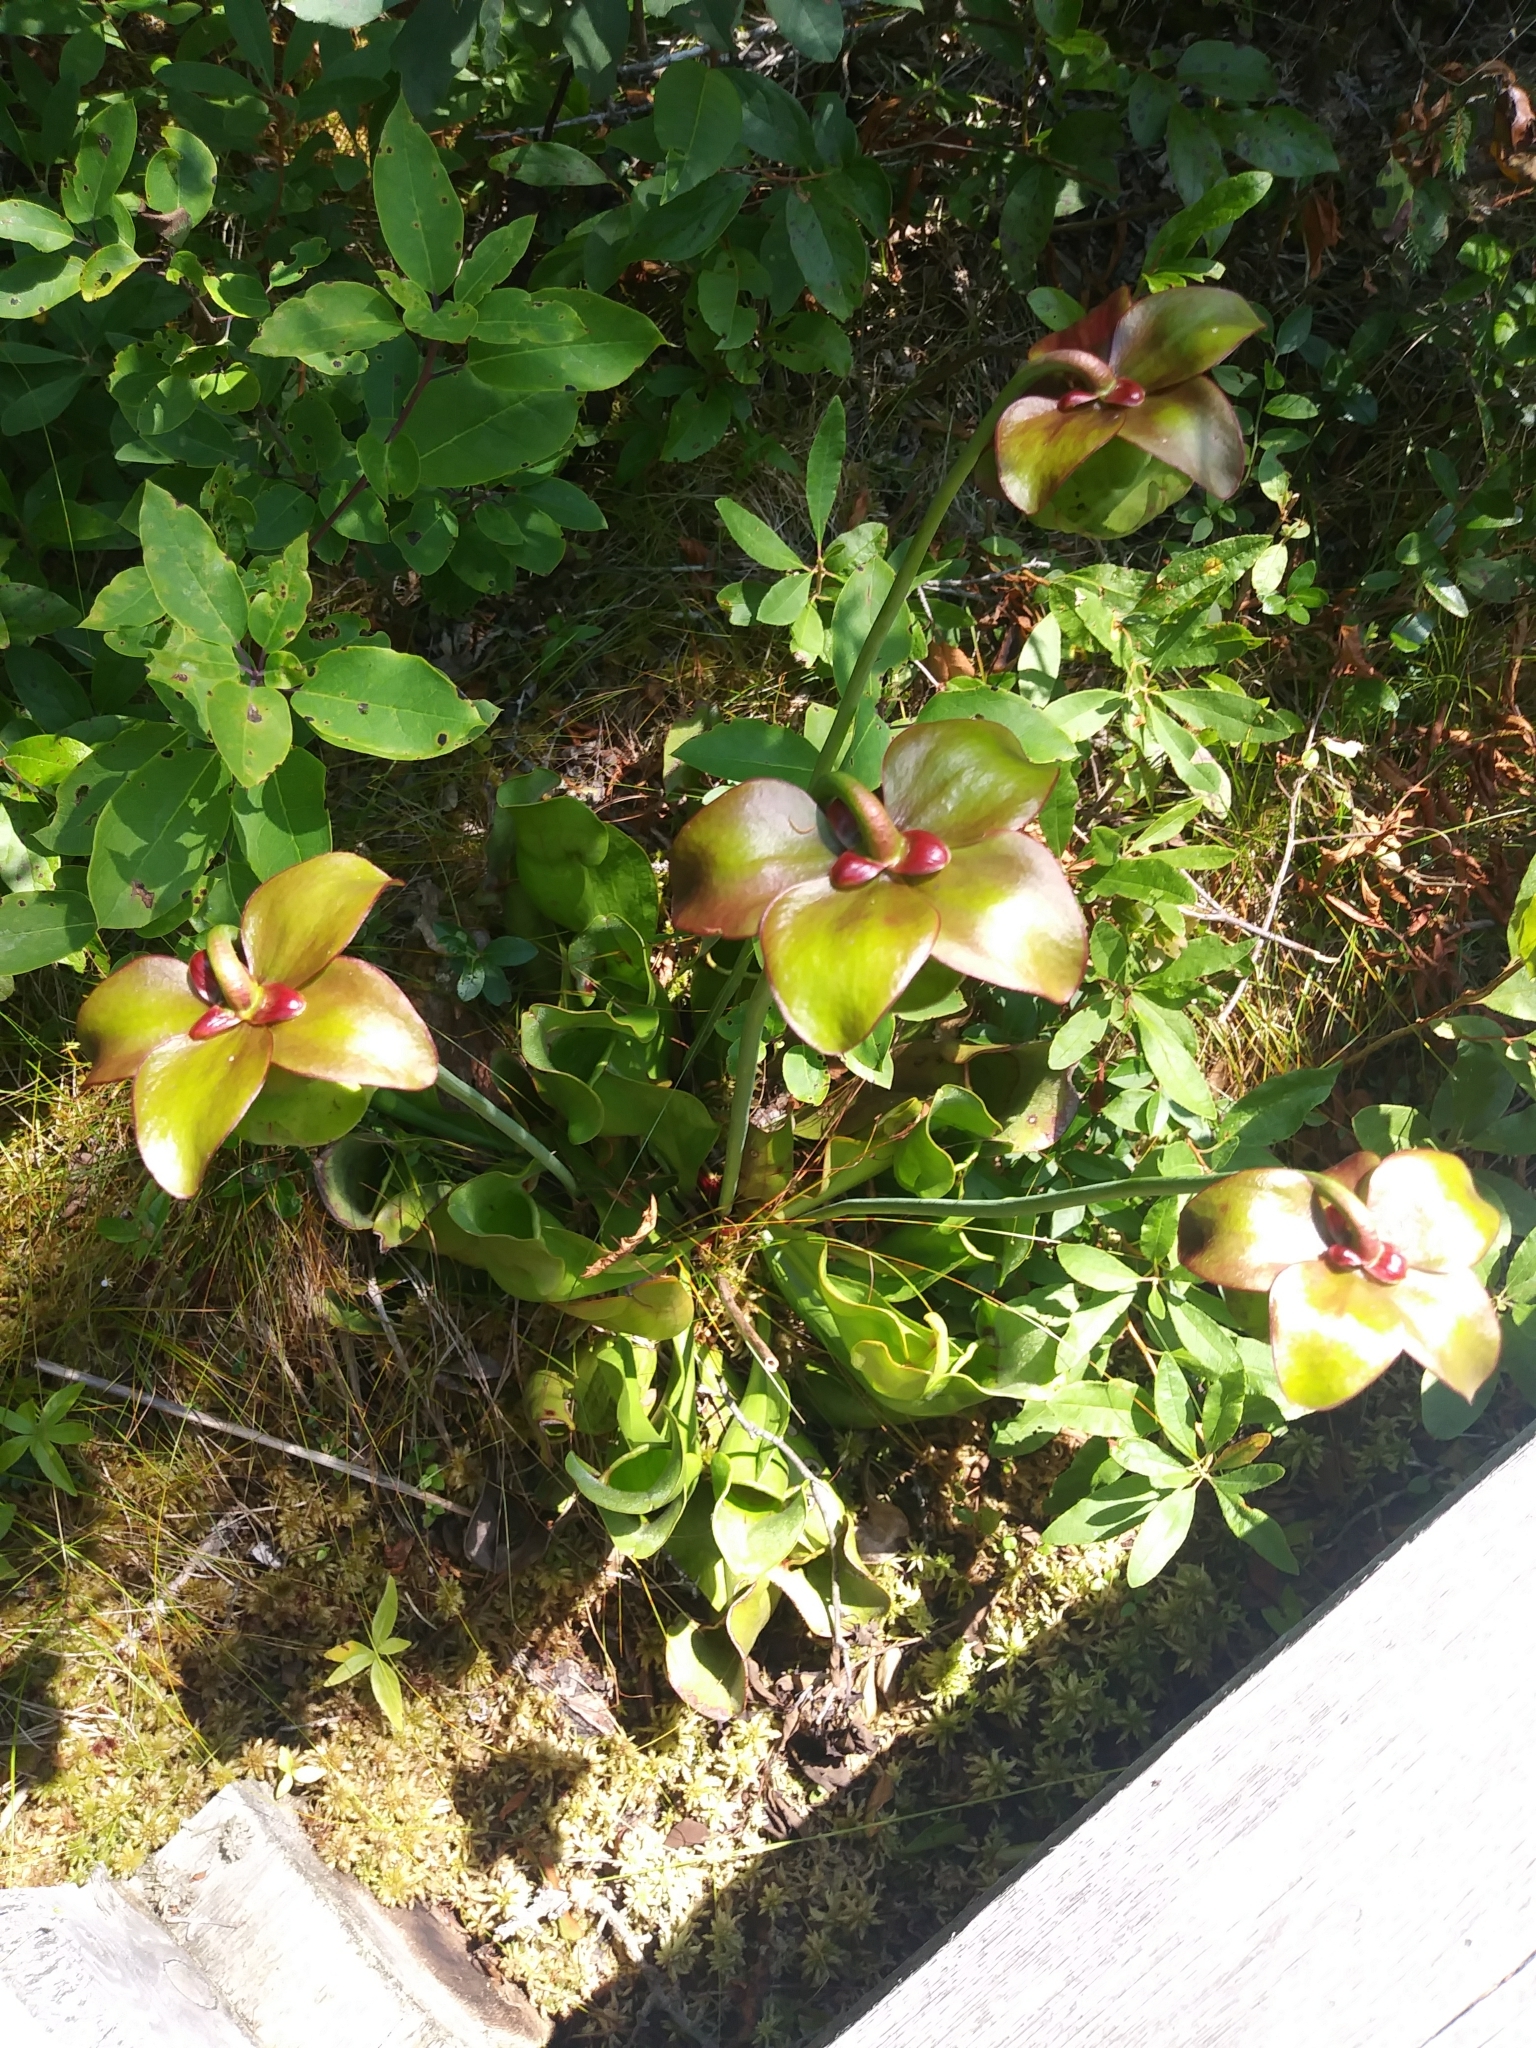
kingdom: Plantae
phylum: Tracheophyta
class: Magnoliopsida
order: Ericales
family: Sarraceniaceae
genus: Sarracenia
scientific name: Sarracenia purpurea
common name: Pitcherplant
